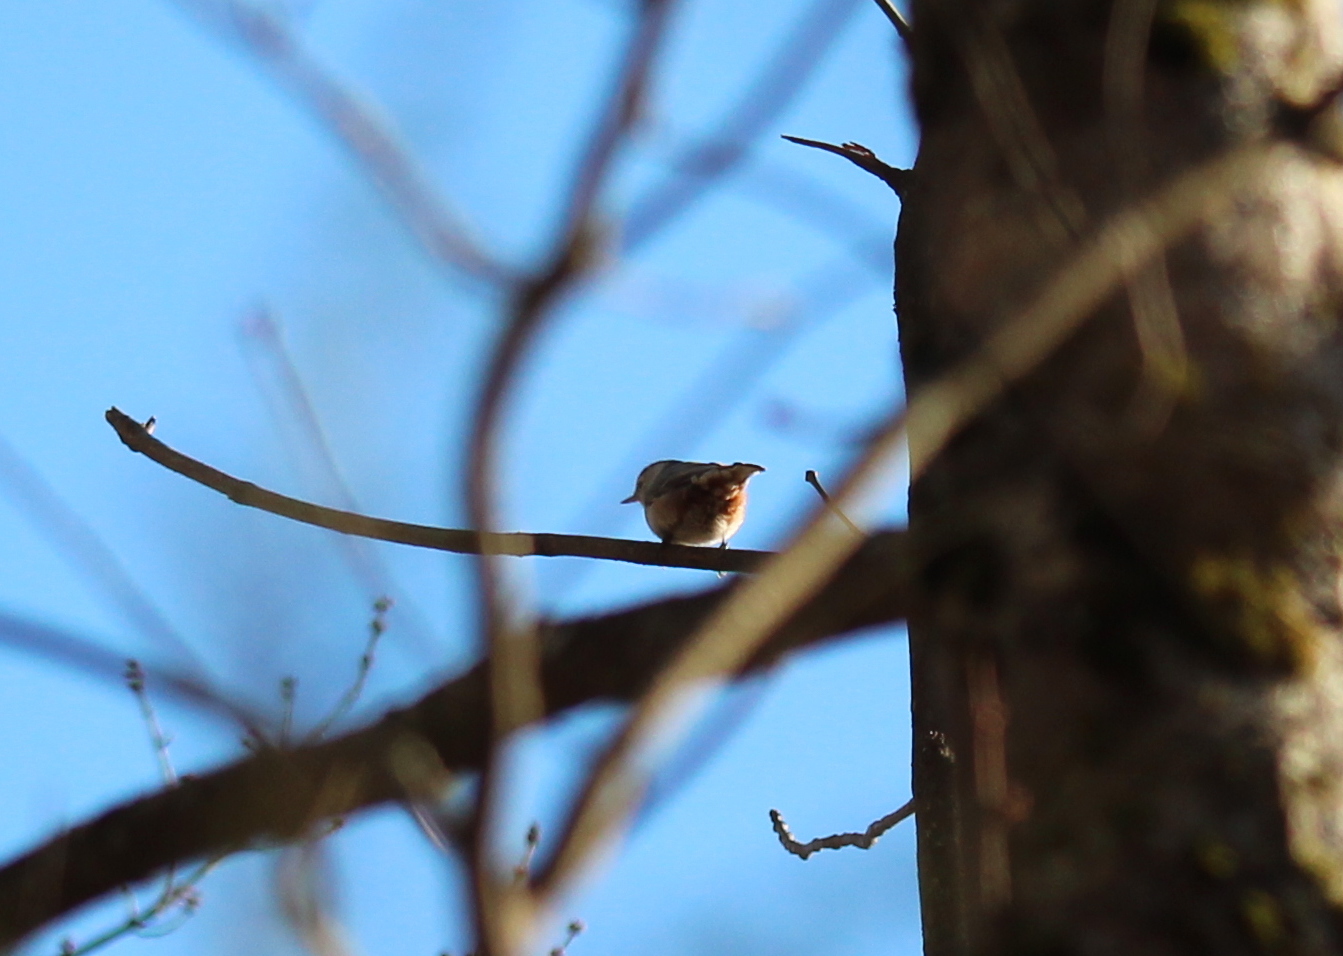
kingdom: Animalia
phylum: Chordata
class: Aves
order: Passeriformes
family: Sittidae
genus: Sitta
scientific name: Sitta carolinensis
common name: White-breasted nuthatch
